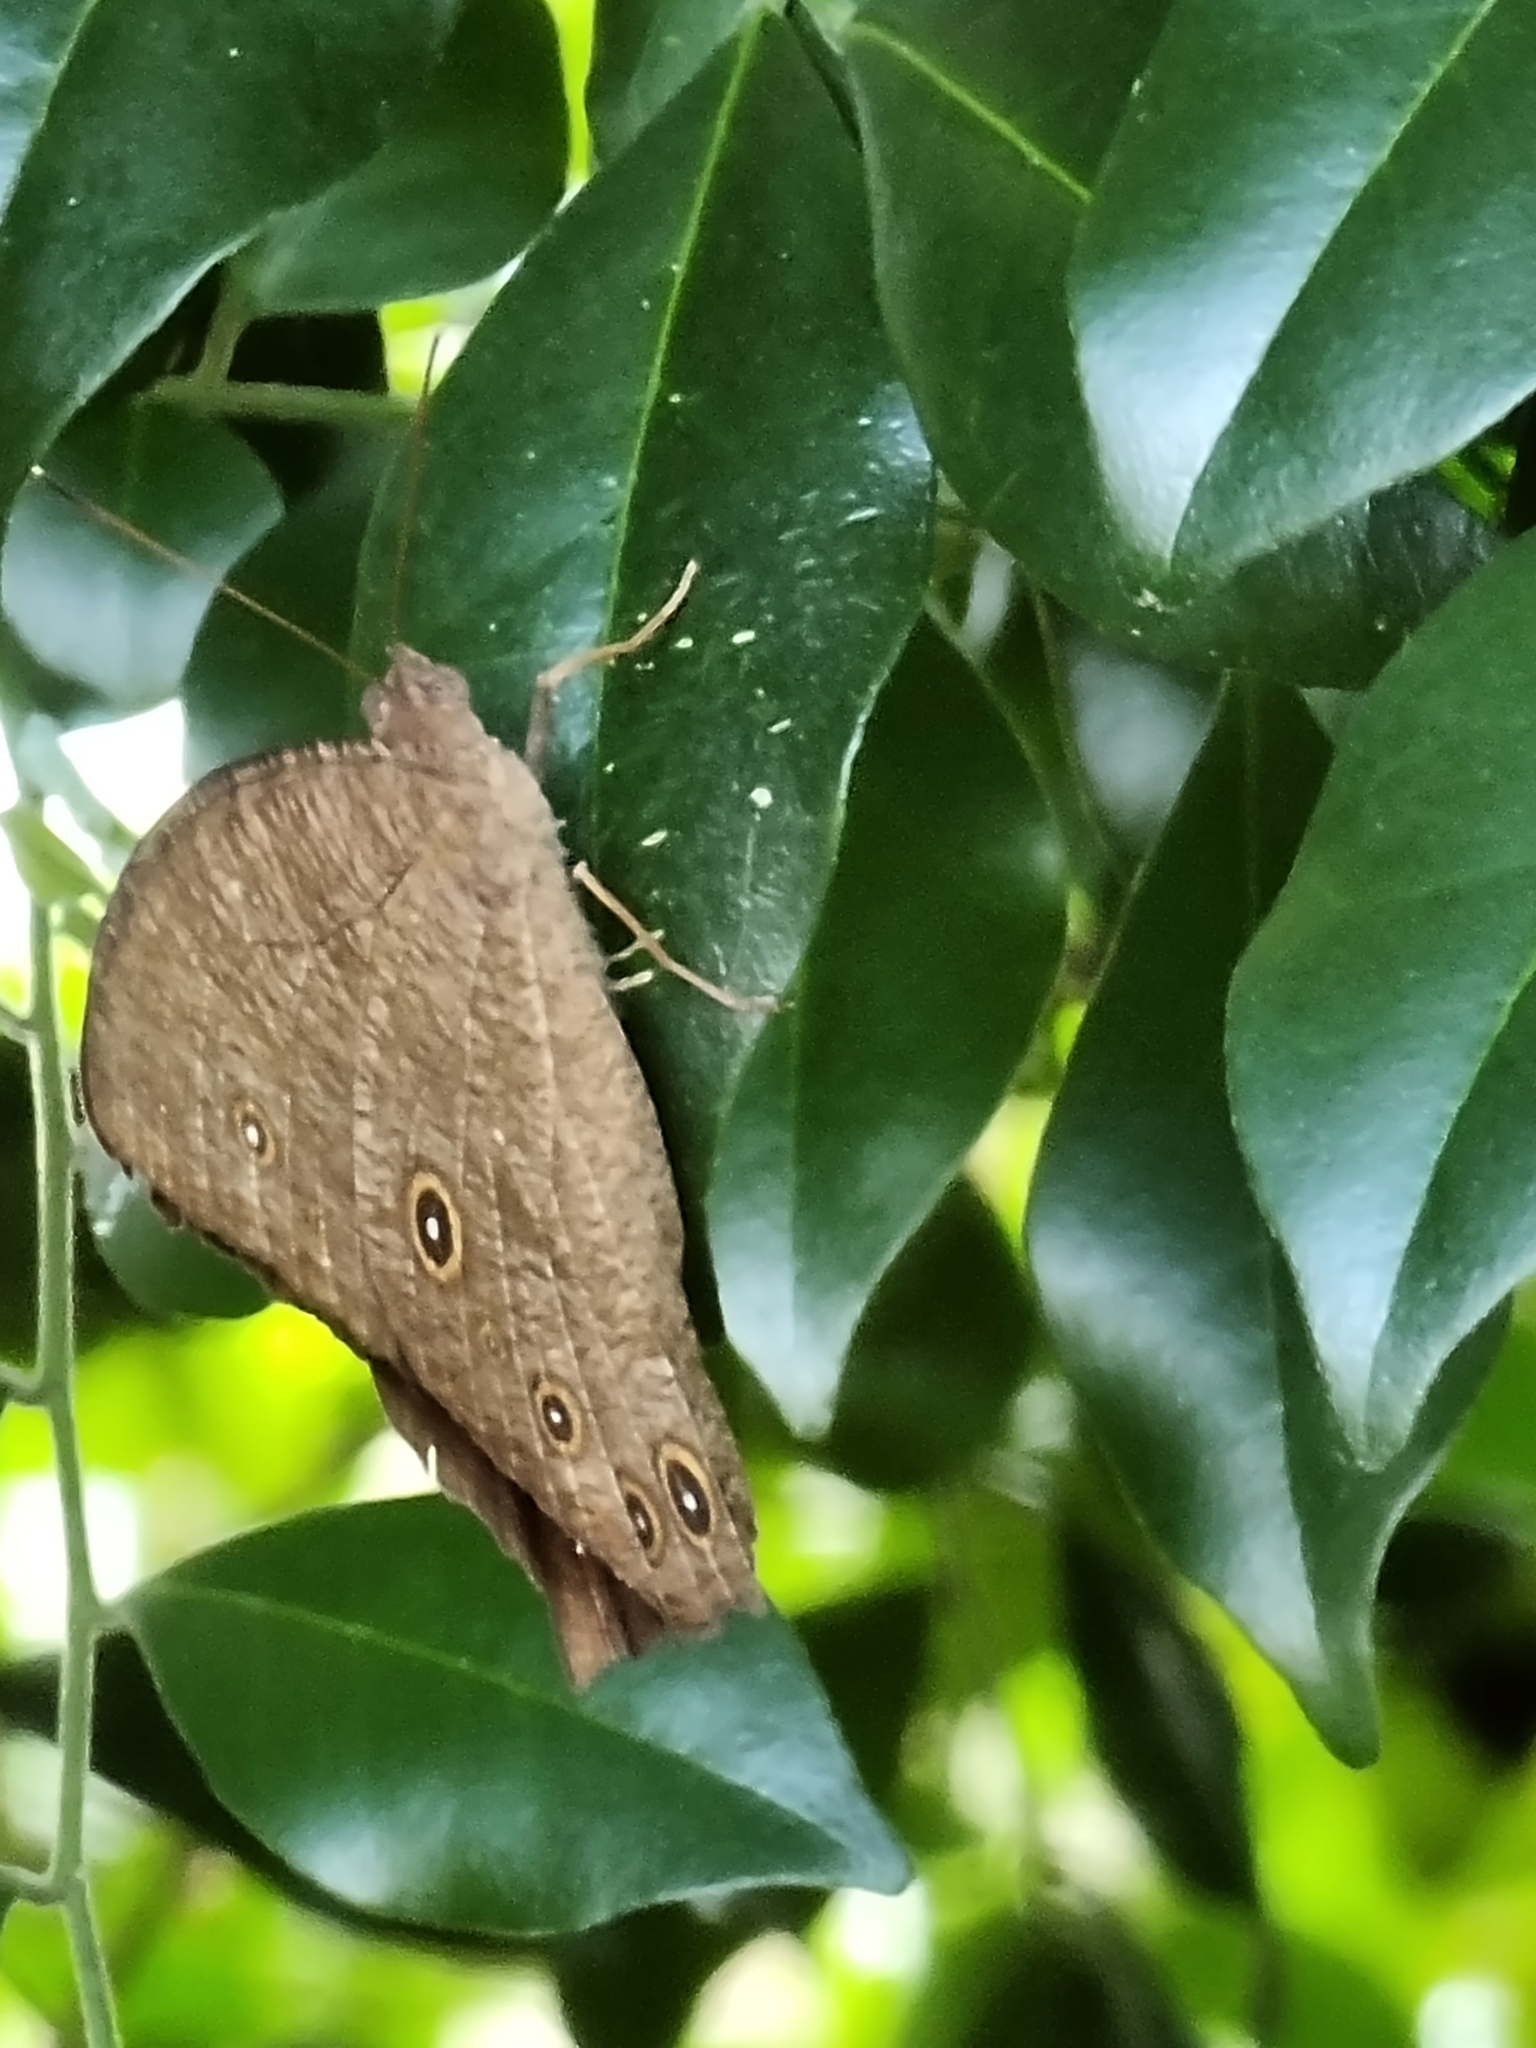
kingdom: Animalia
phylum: Arthropoda
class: Insecta
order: Lepidoptera
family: Nymphalidae
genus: Melanitis
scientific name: Melanitis leda
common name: Twilight brown
